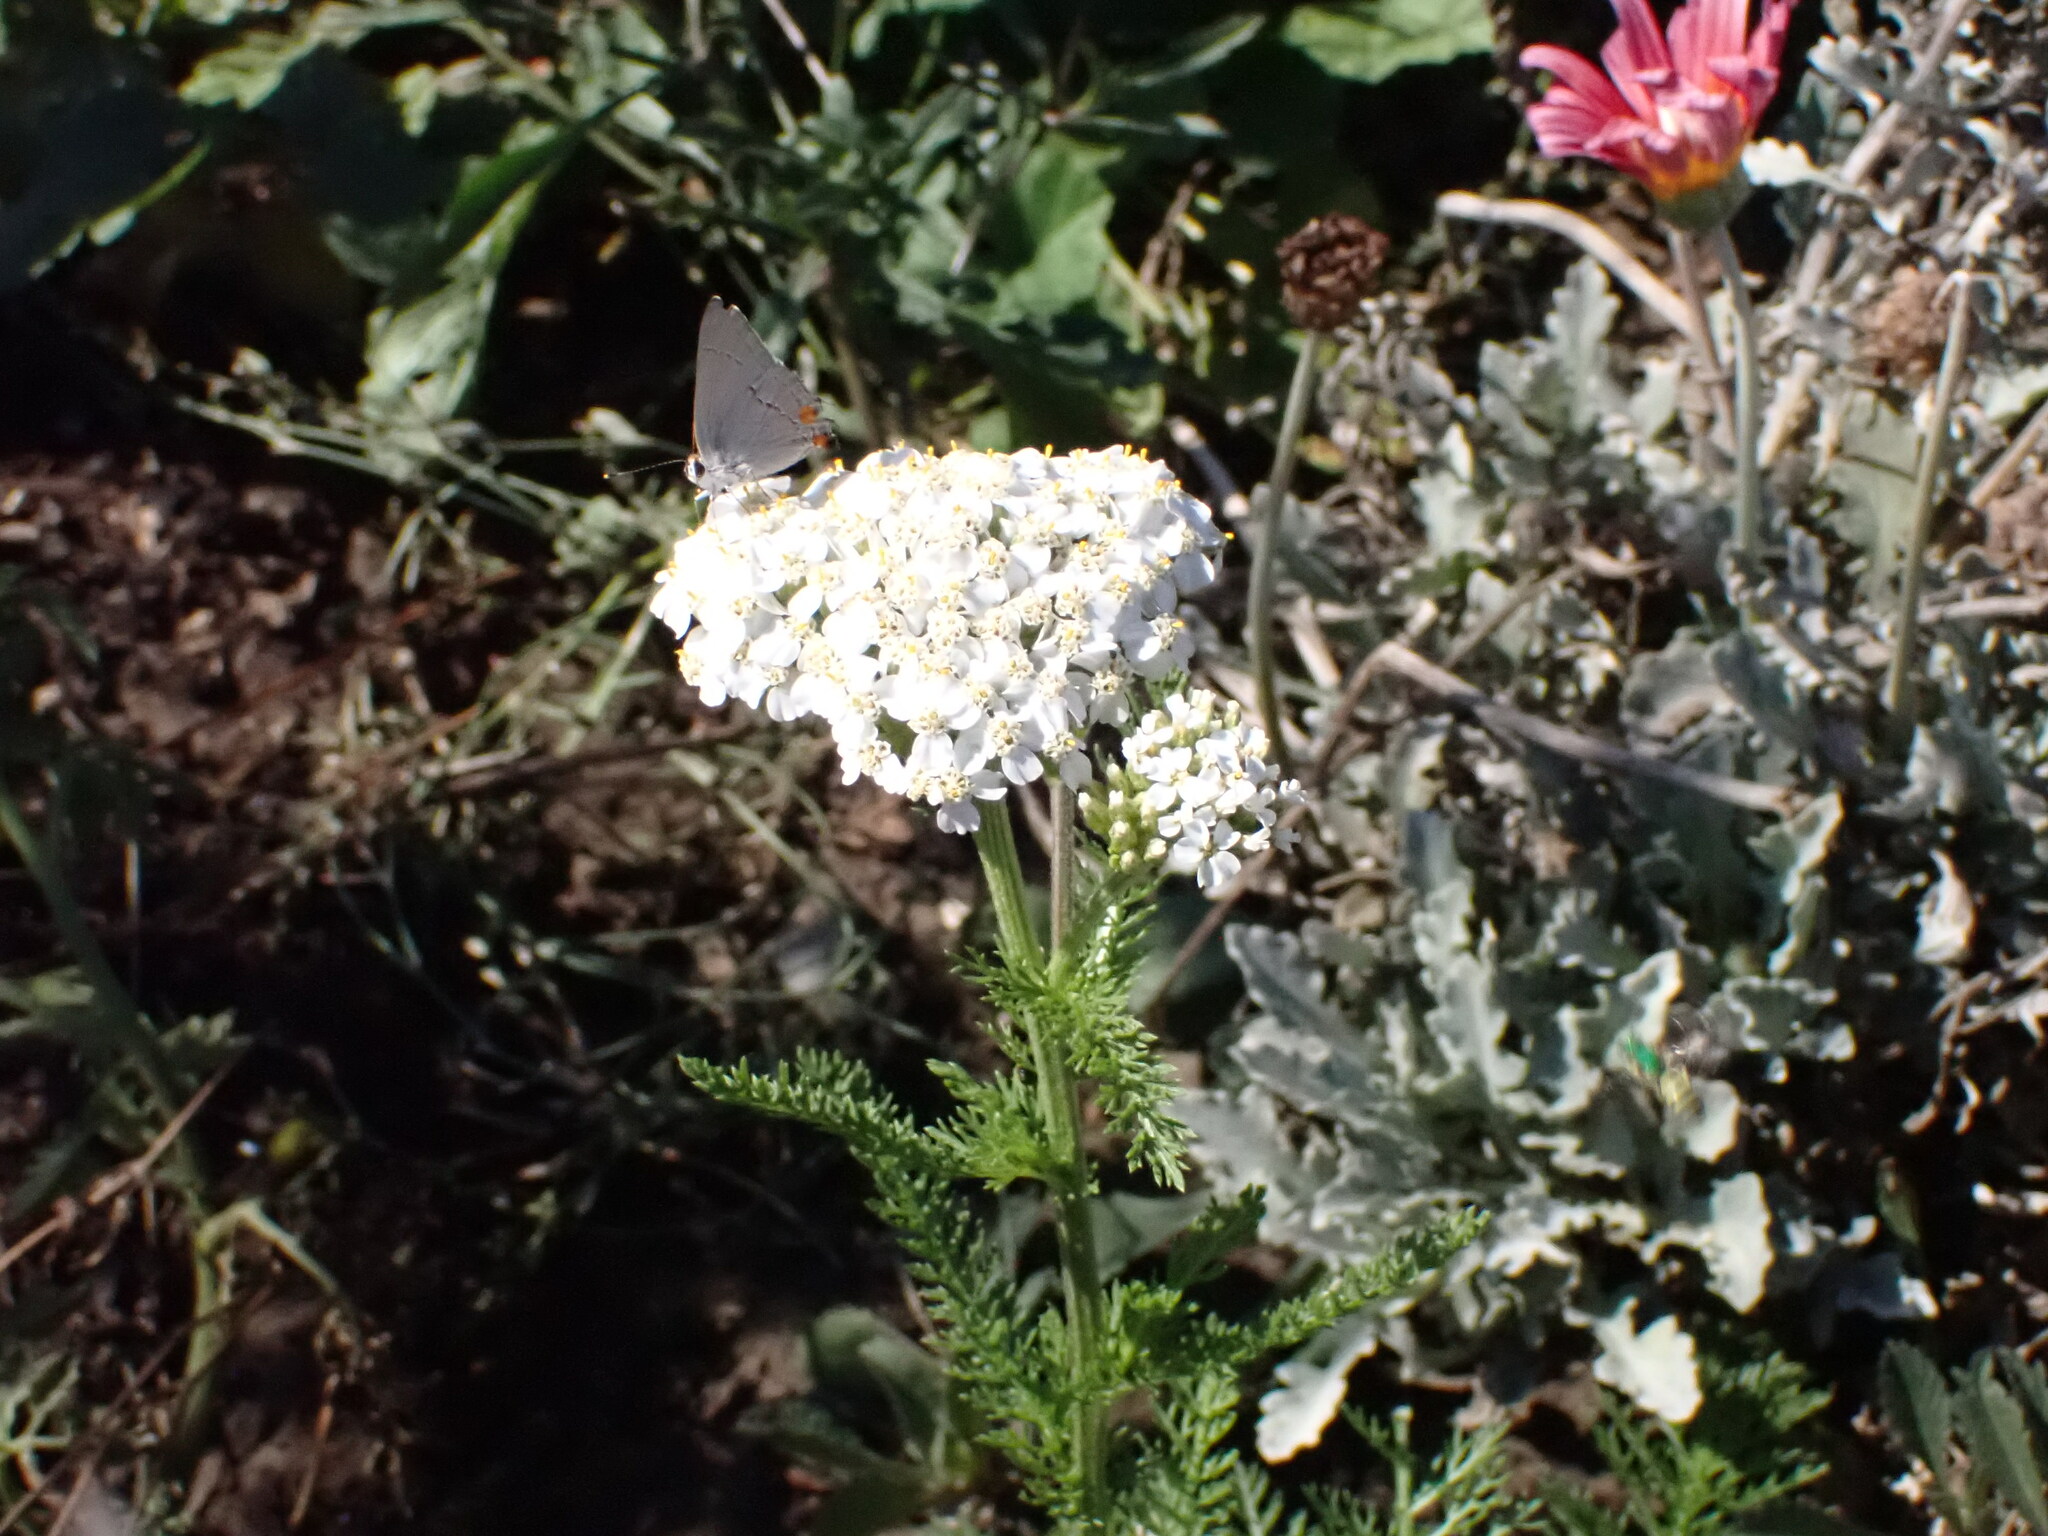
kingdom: Animalia
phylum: Arthropoda
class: Insecta
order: Lepidoptera
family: Lycaenidae
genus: Strymon
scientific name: Strymon melinus
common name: Gray hairstreak
